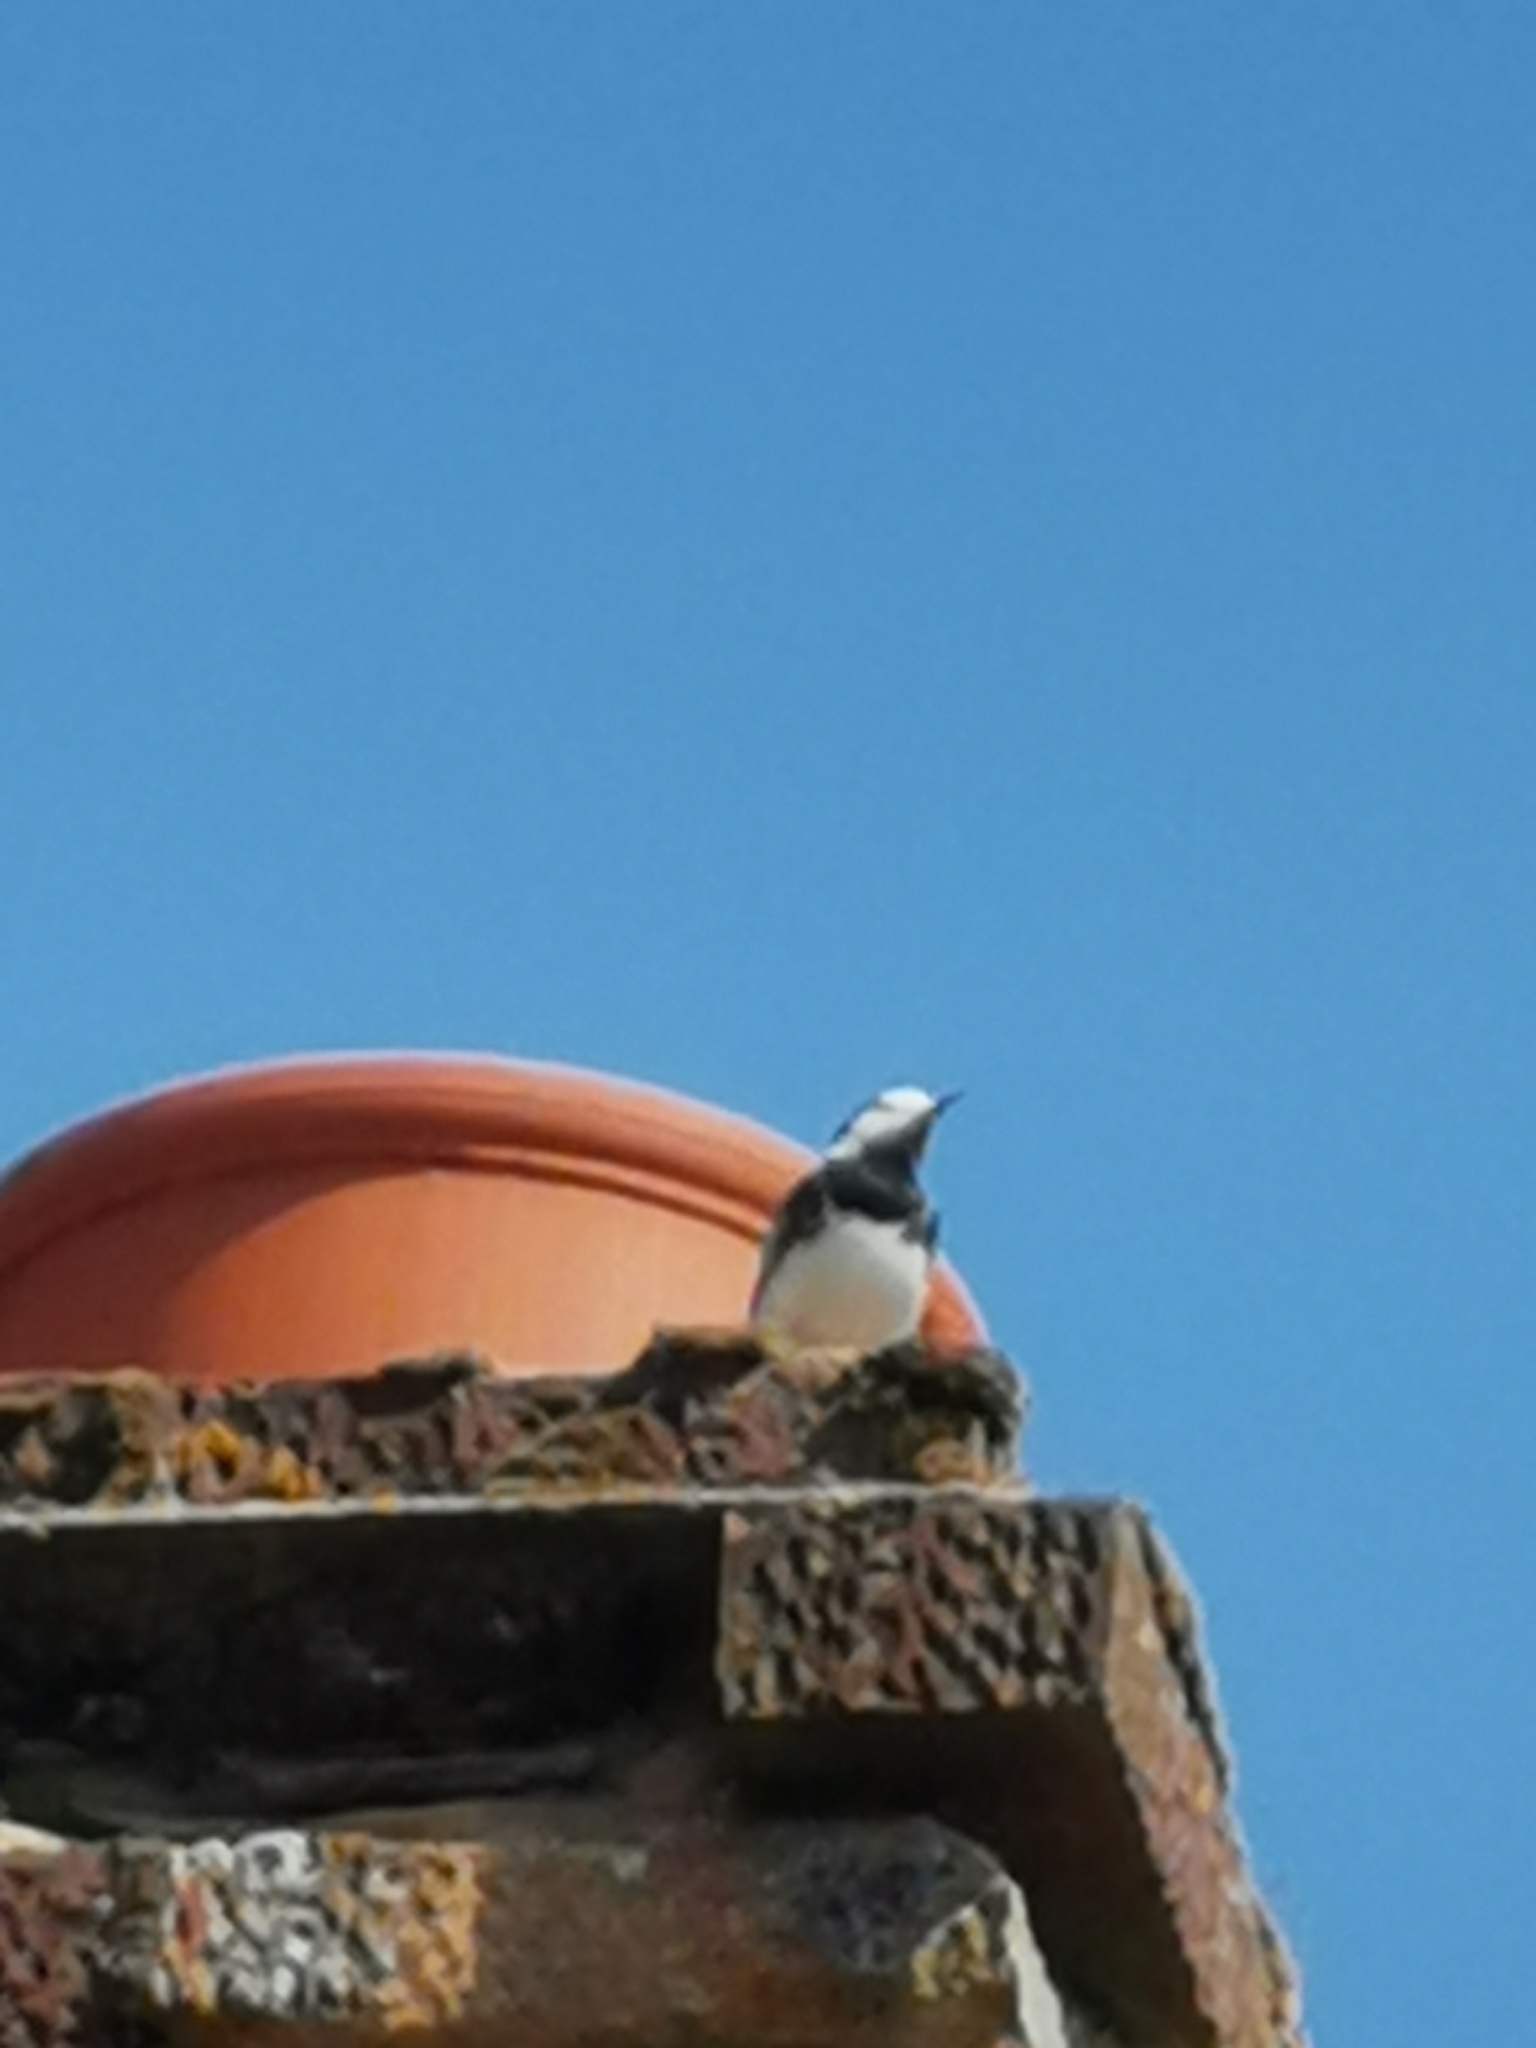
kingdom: Animalia
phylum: Chordata
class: Aves
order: Passeriformes
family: Motacillidae
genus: Motacilla
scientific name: Motacilla alba
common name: White wagtail
